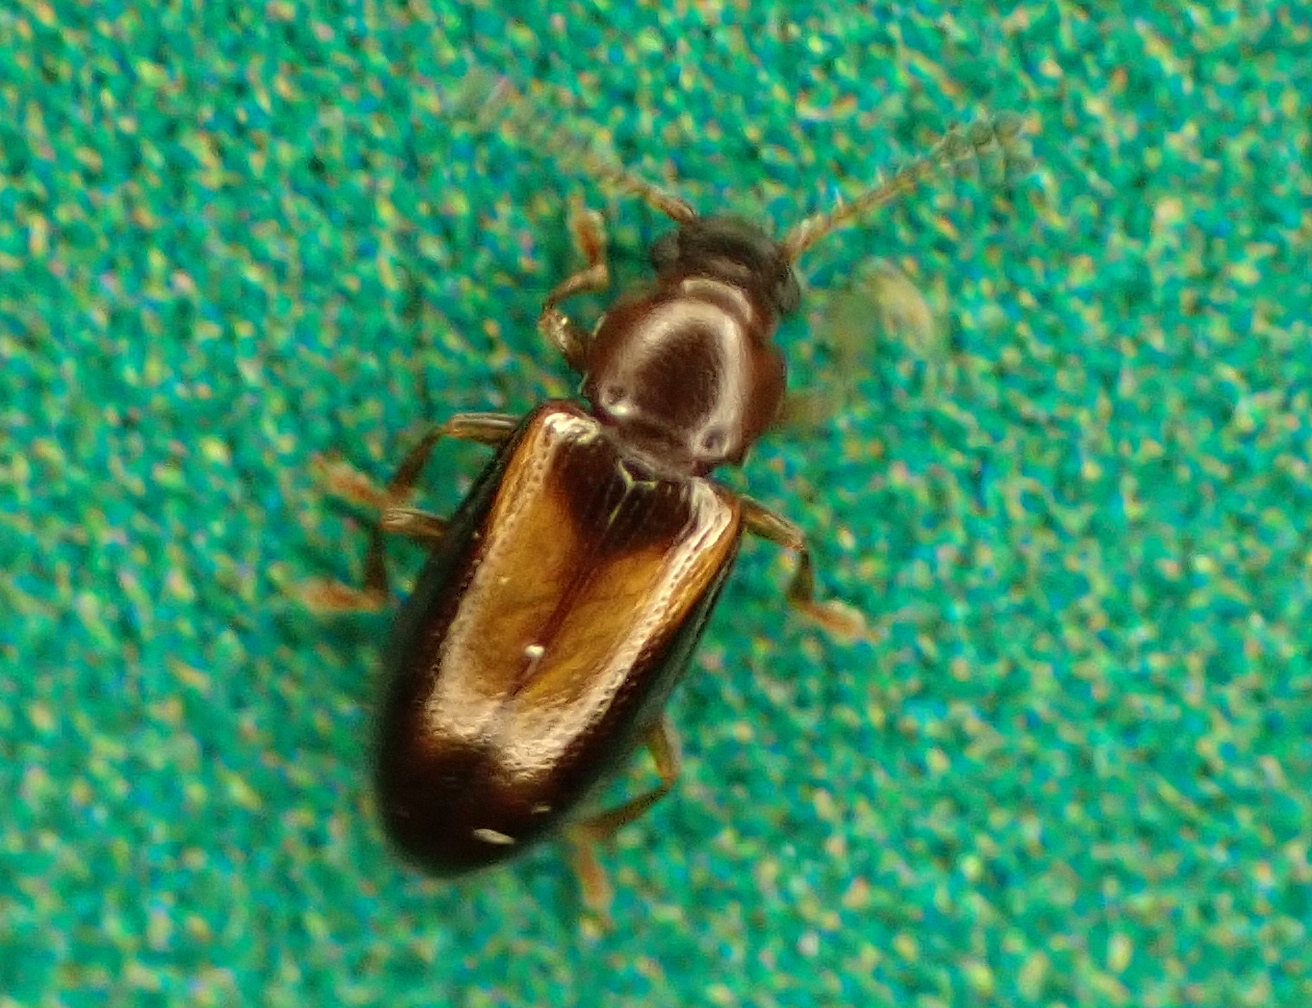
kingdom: Animalia
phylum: Arthropoda
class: Insecta
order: Coleoptera
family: Erotylidae
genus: Loberus
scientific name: Loberus depressus
